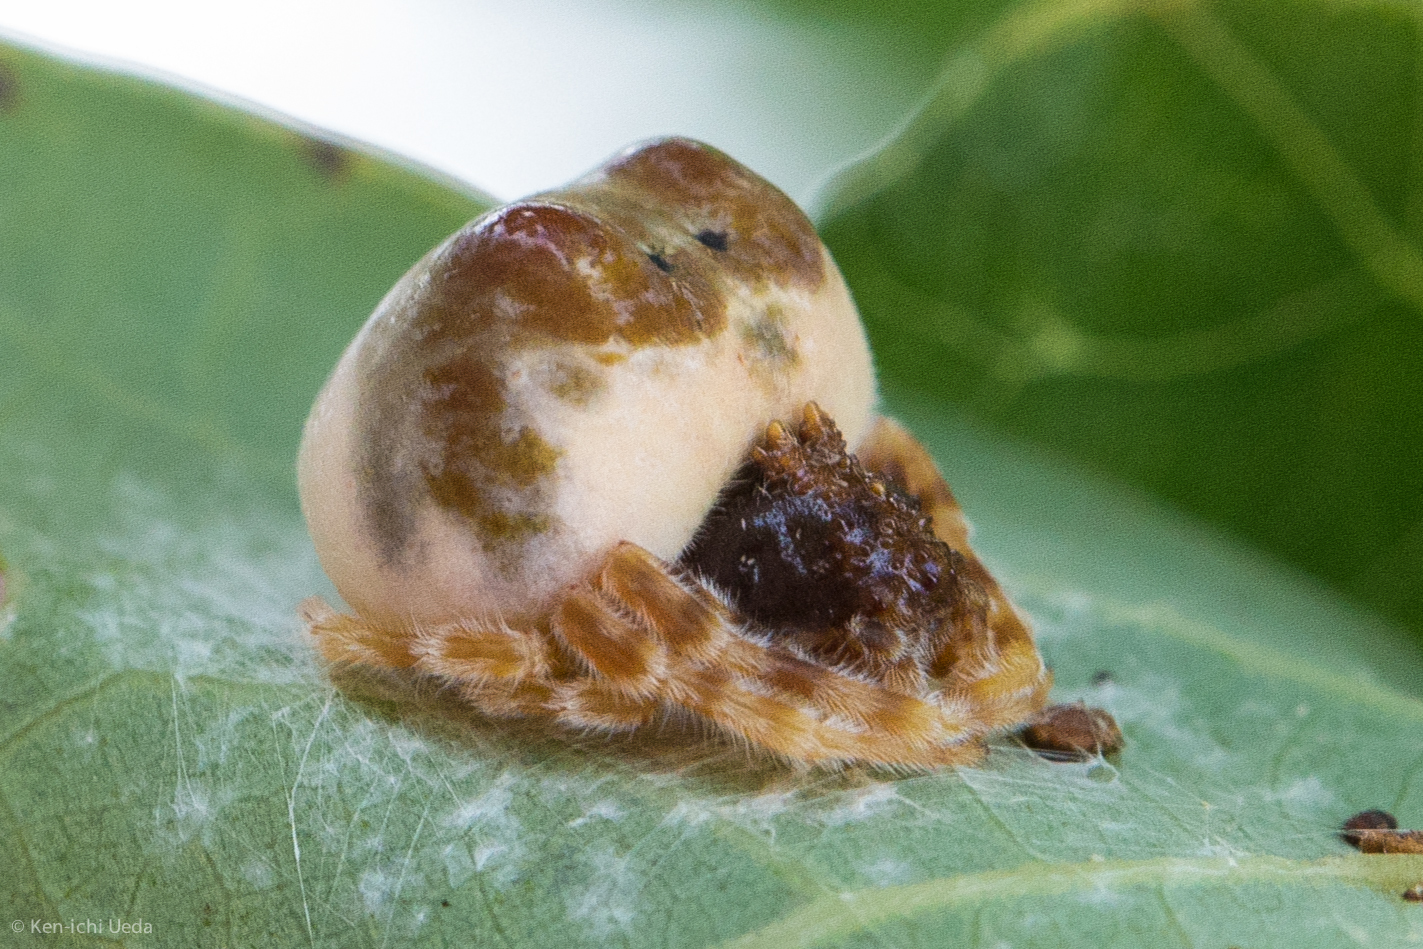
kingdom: Animalia
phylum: Arthropoda
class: Arachnida
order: Araneae
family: Araneidae
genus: Mastophora
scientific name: Mastophora hutchinsoni
